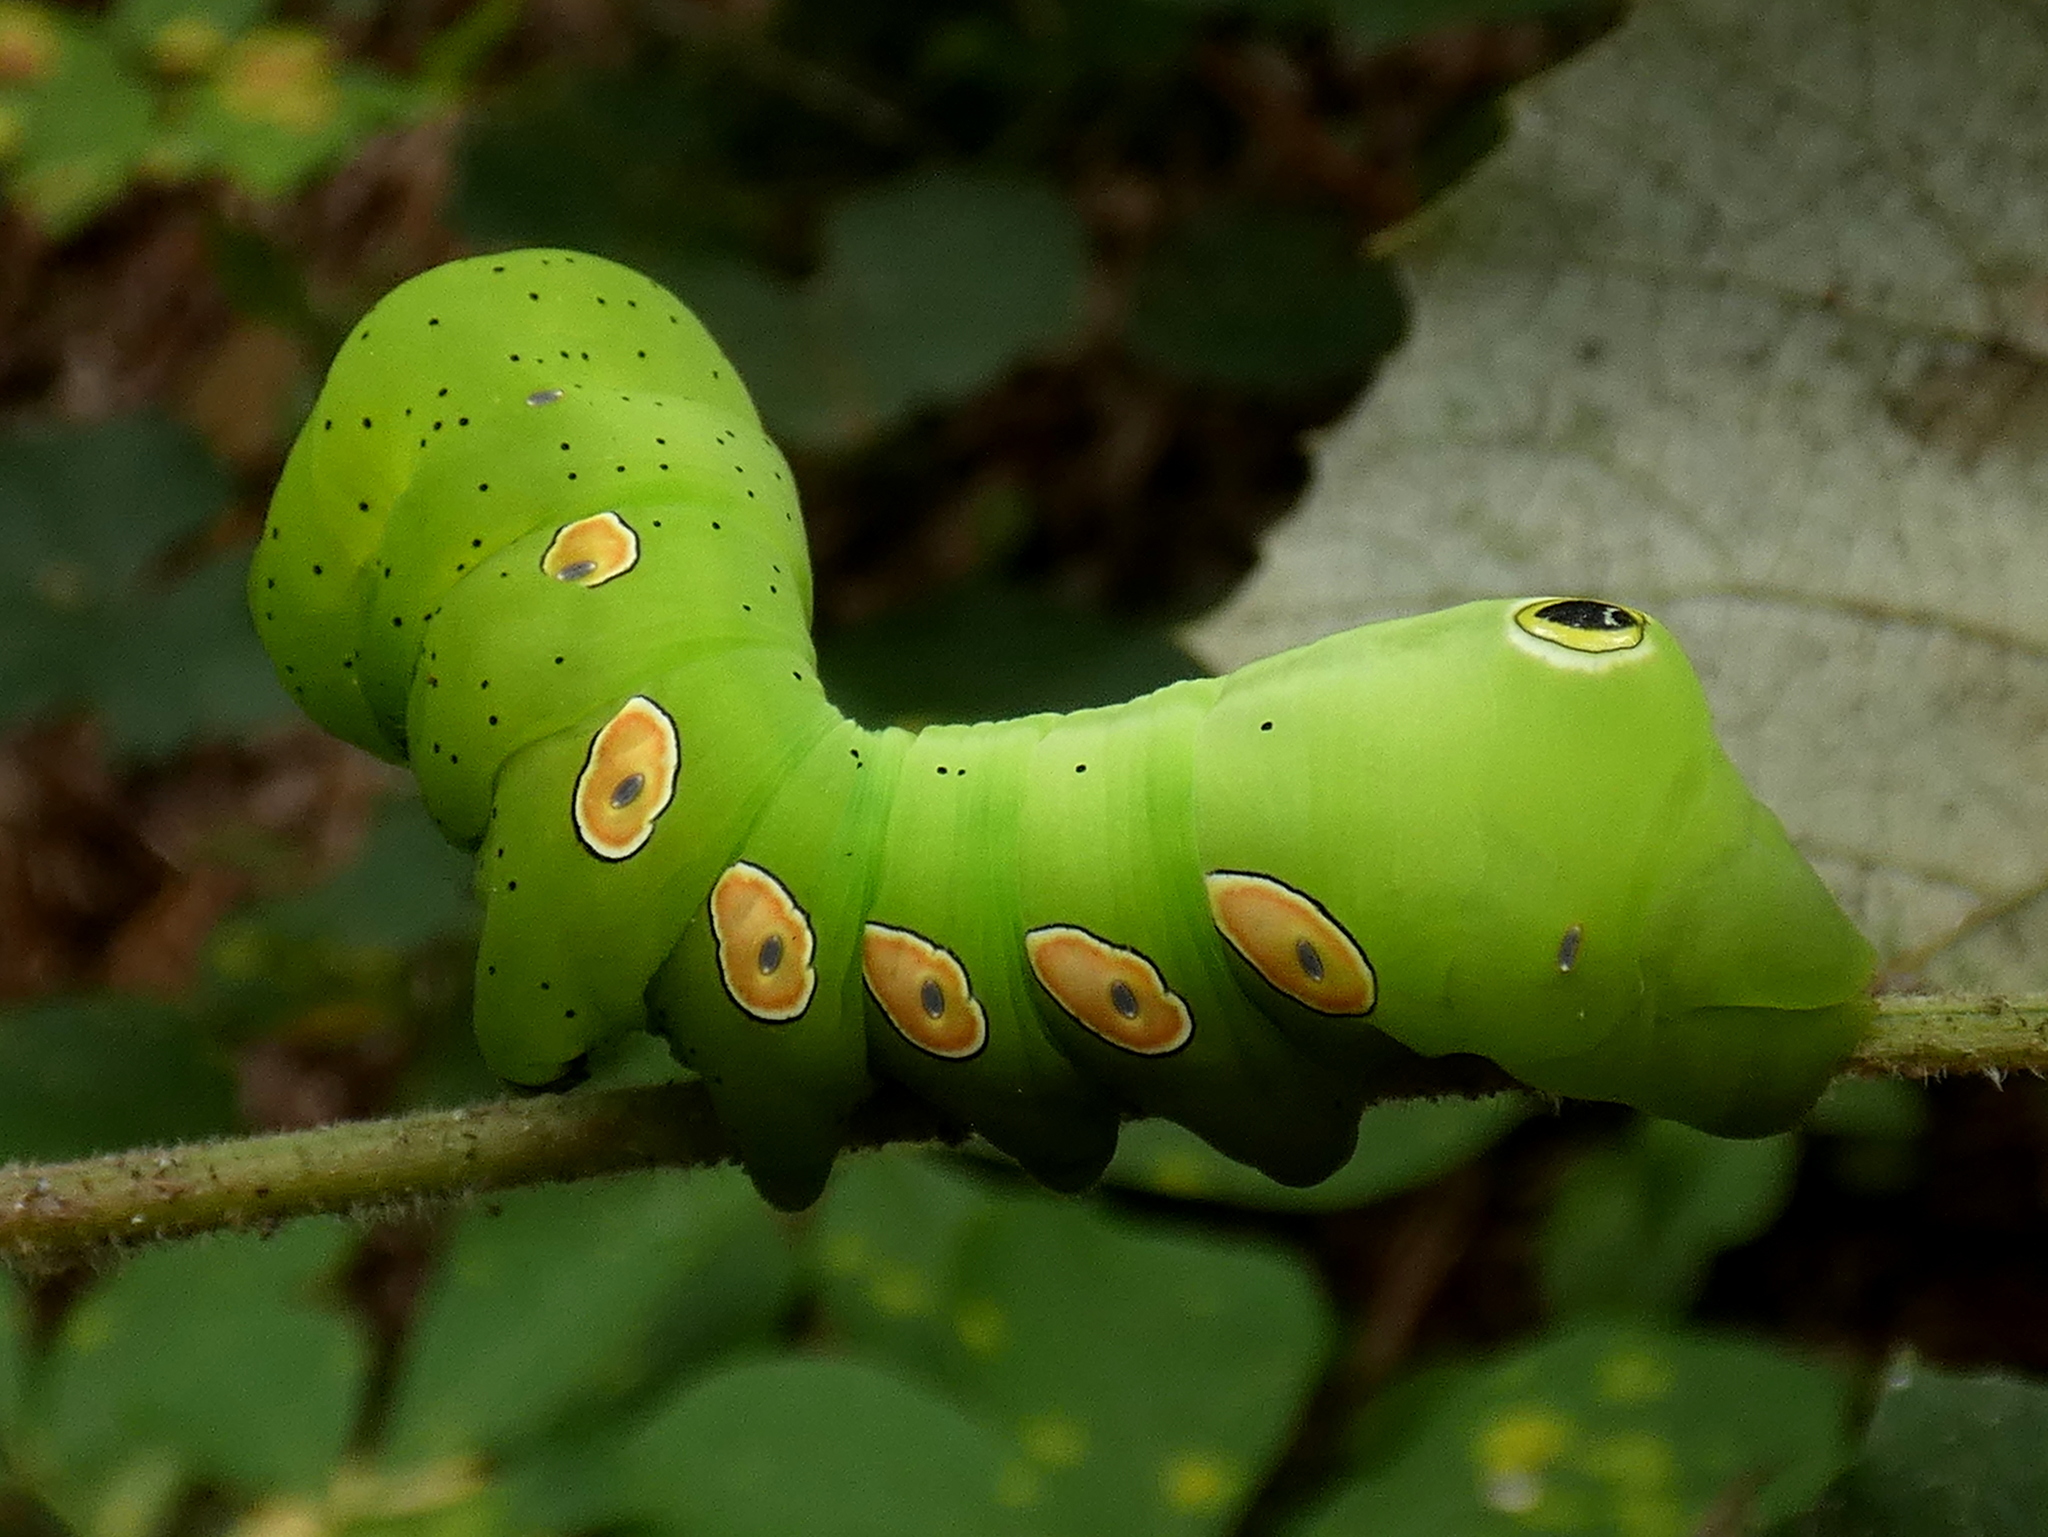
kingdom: Animalia
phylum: Arthropoda
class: Insecta
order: Lepidoptera
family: Sphingidae
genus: Eumorpha
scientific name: Eumorpha pandorus
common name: Pandora sphinx
